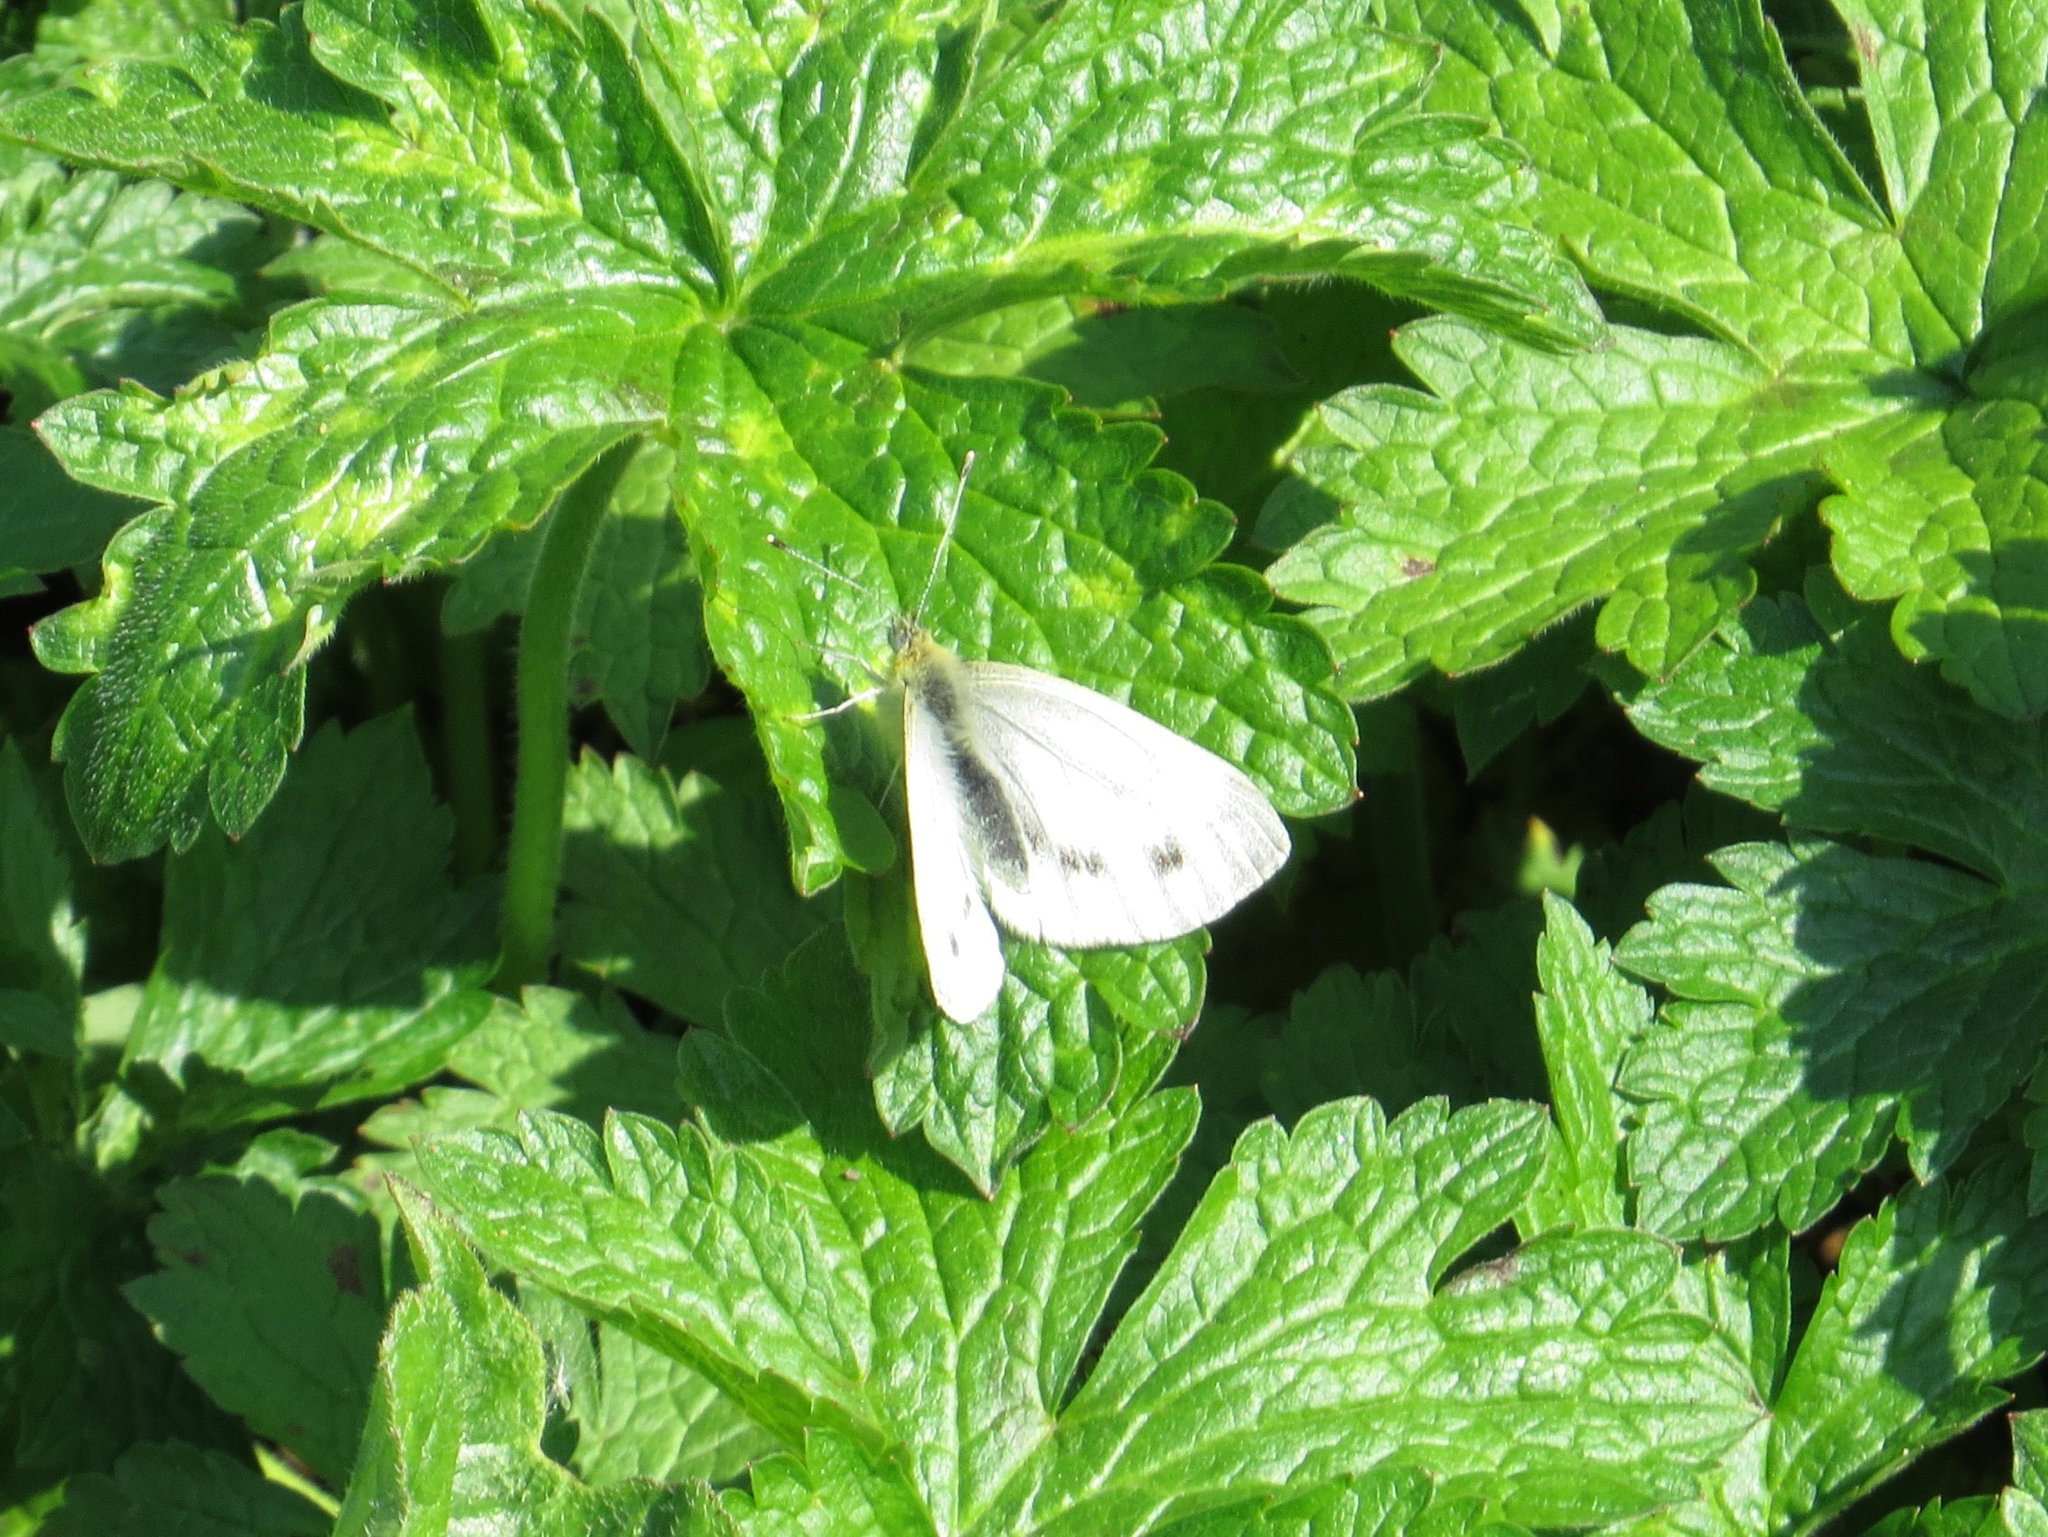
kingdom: Animalia
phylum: Arthropoda
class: Insecta
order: Lepidoptera
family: Pieridae
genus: Pieris
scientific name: Pieris napi
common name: Green-veined white
